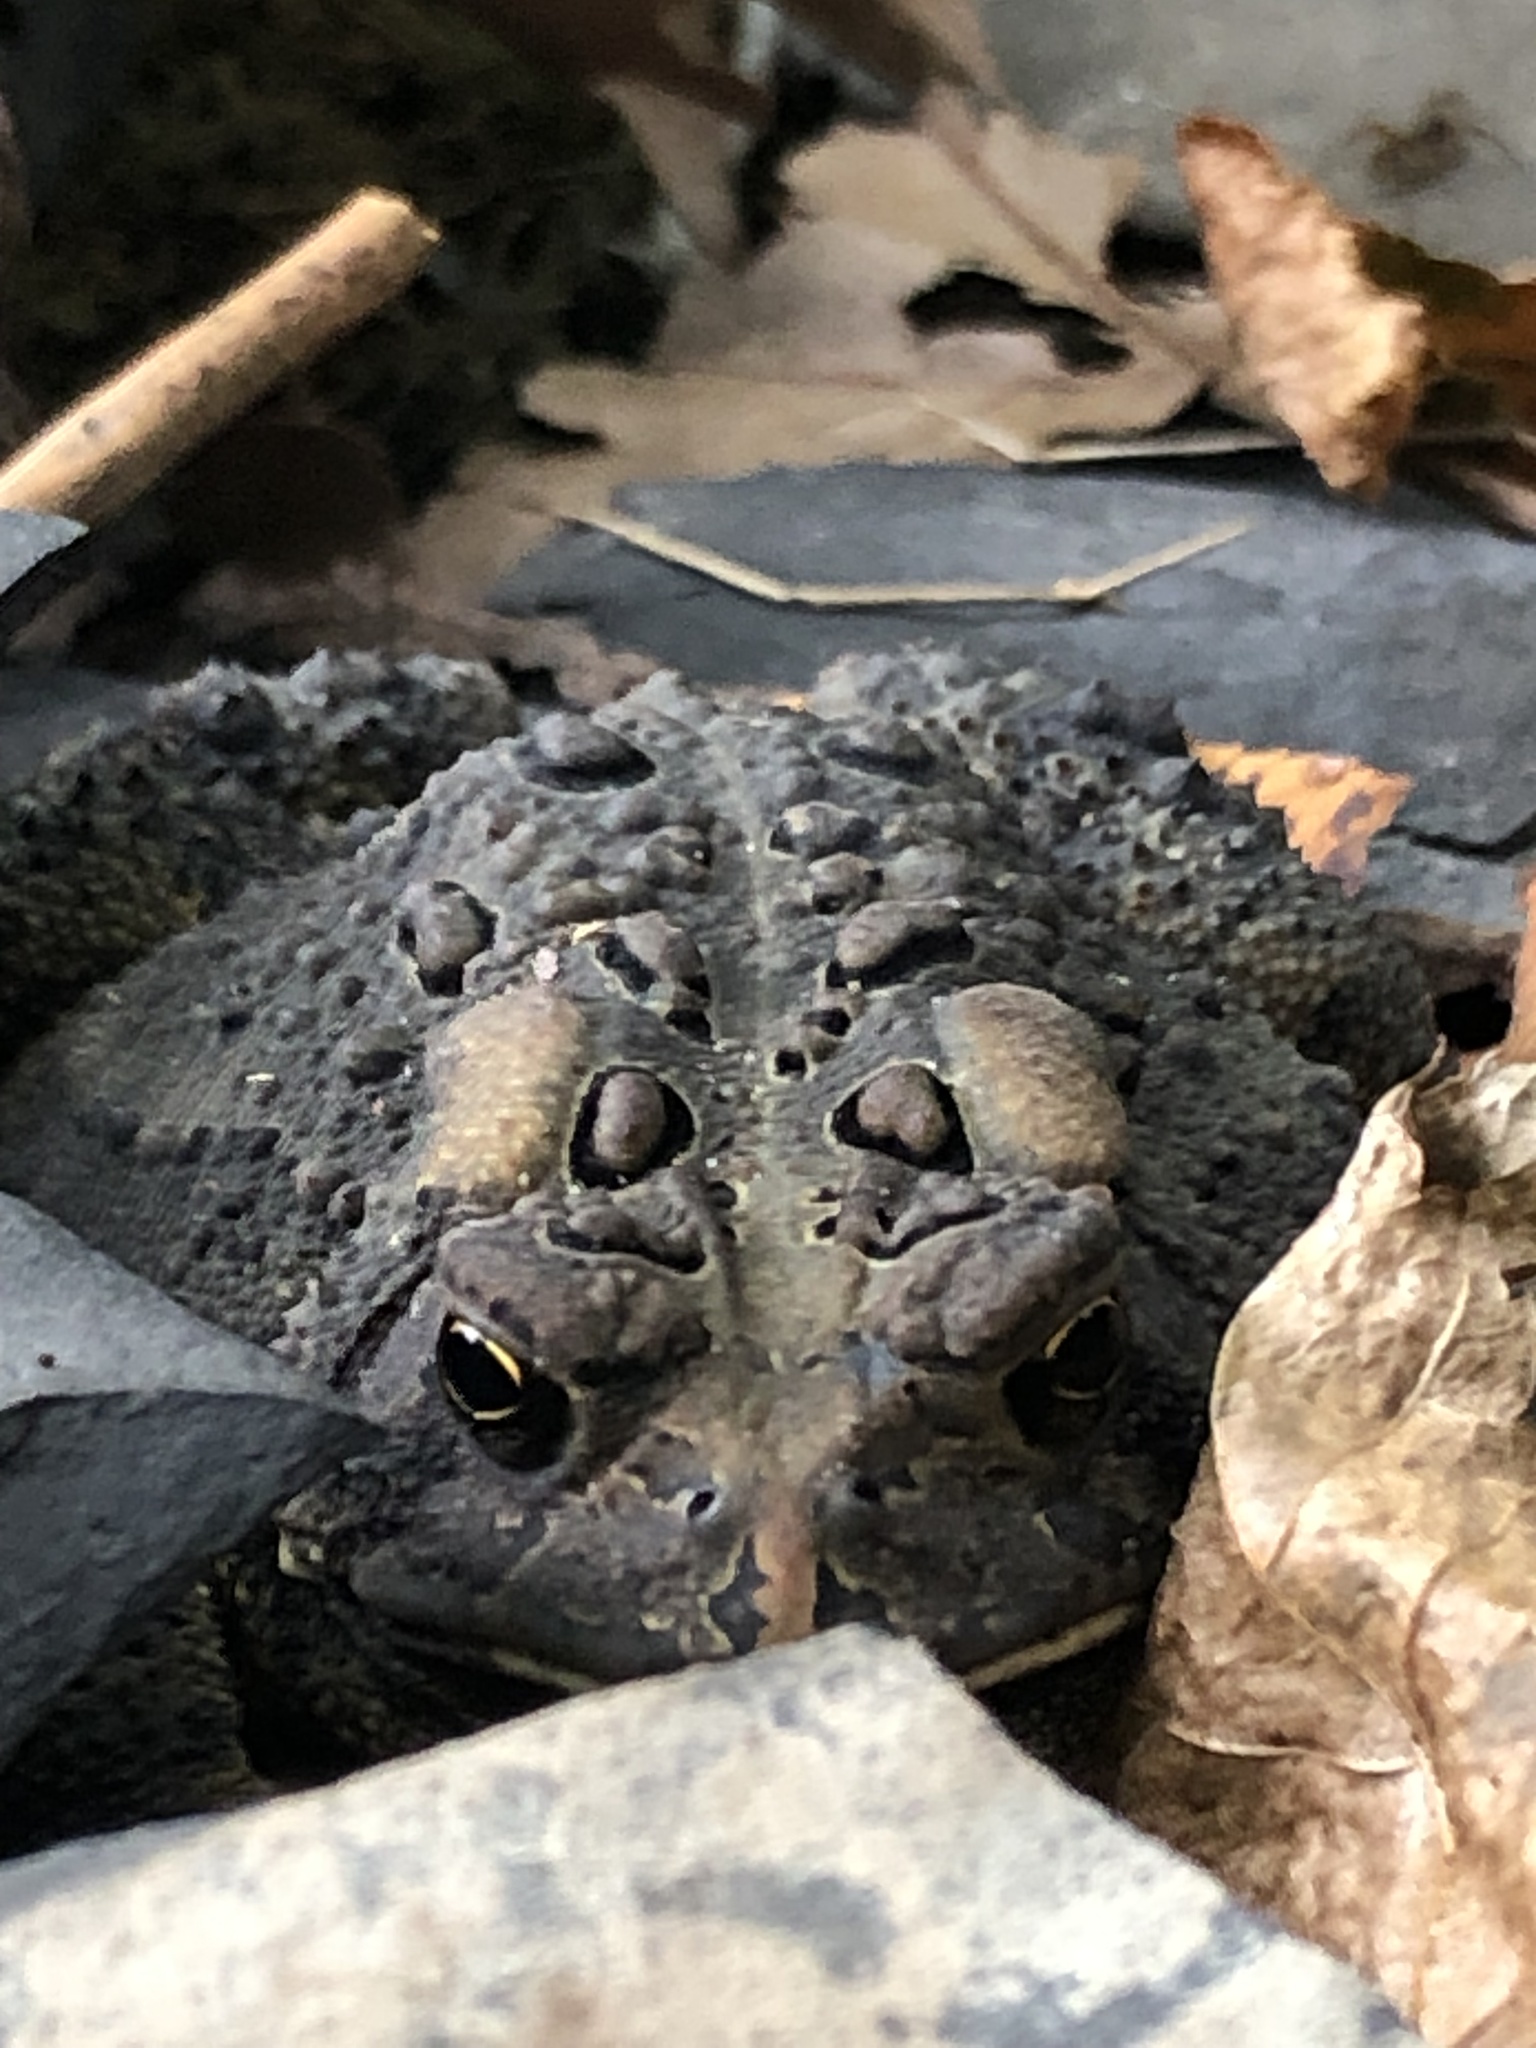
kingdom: Animalia
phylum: Chordata
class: Amphibia
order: Anura
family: Bufonidae
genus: Anaxyrus
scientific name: Anaxyrus americanus
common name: American toad
